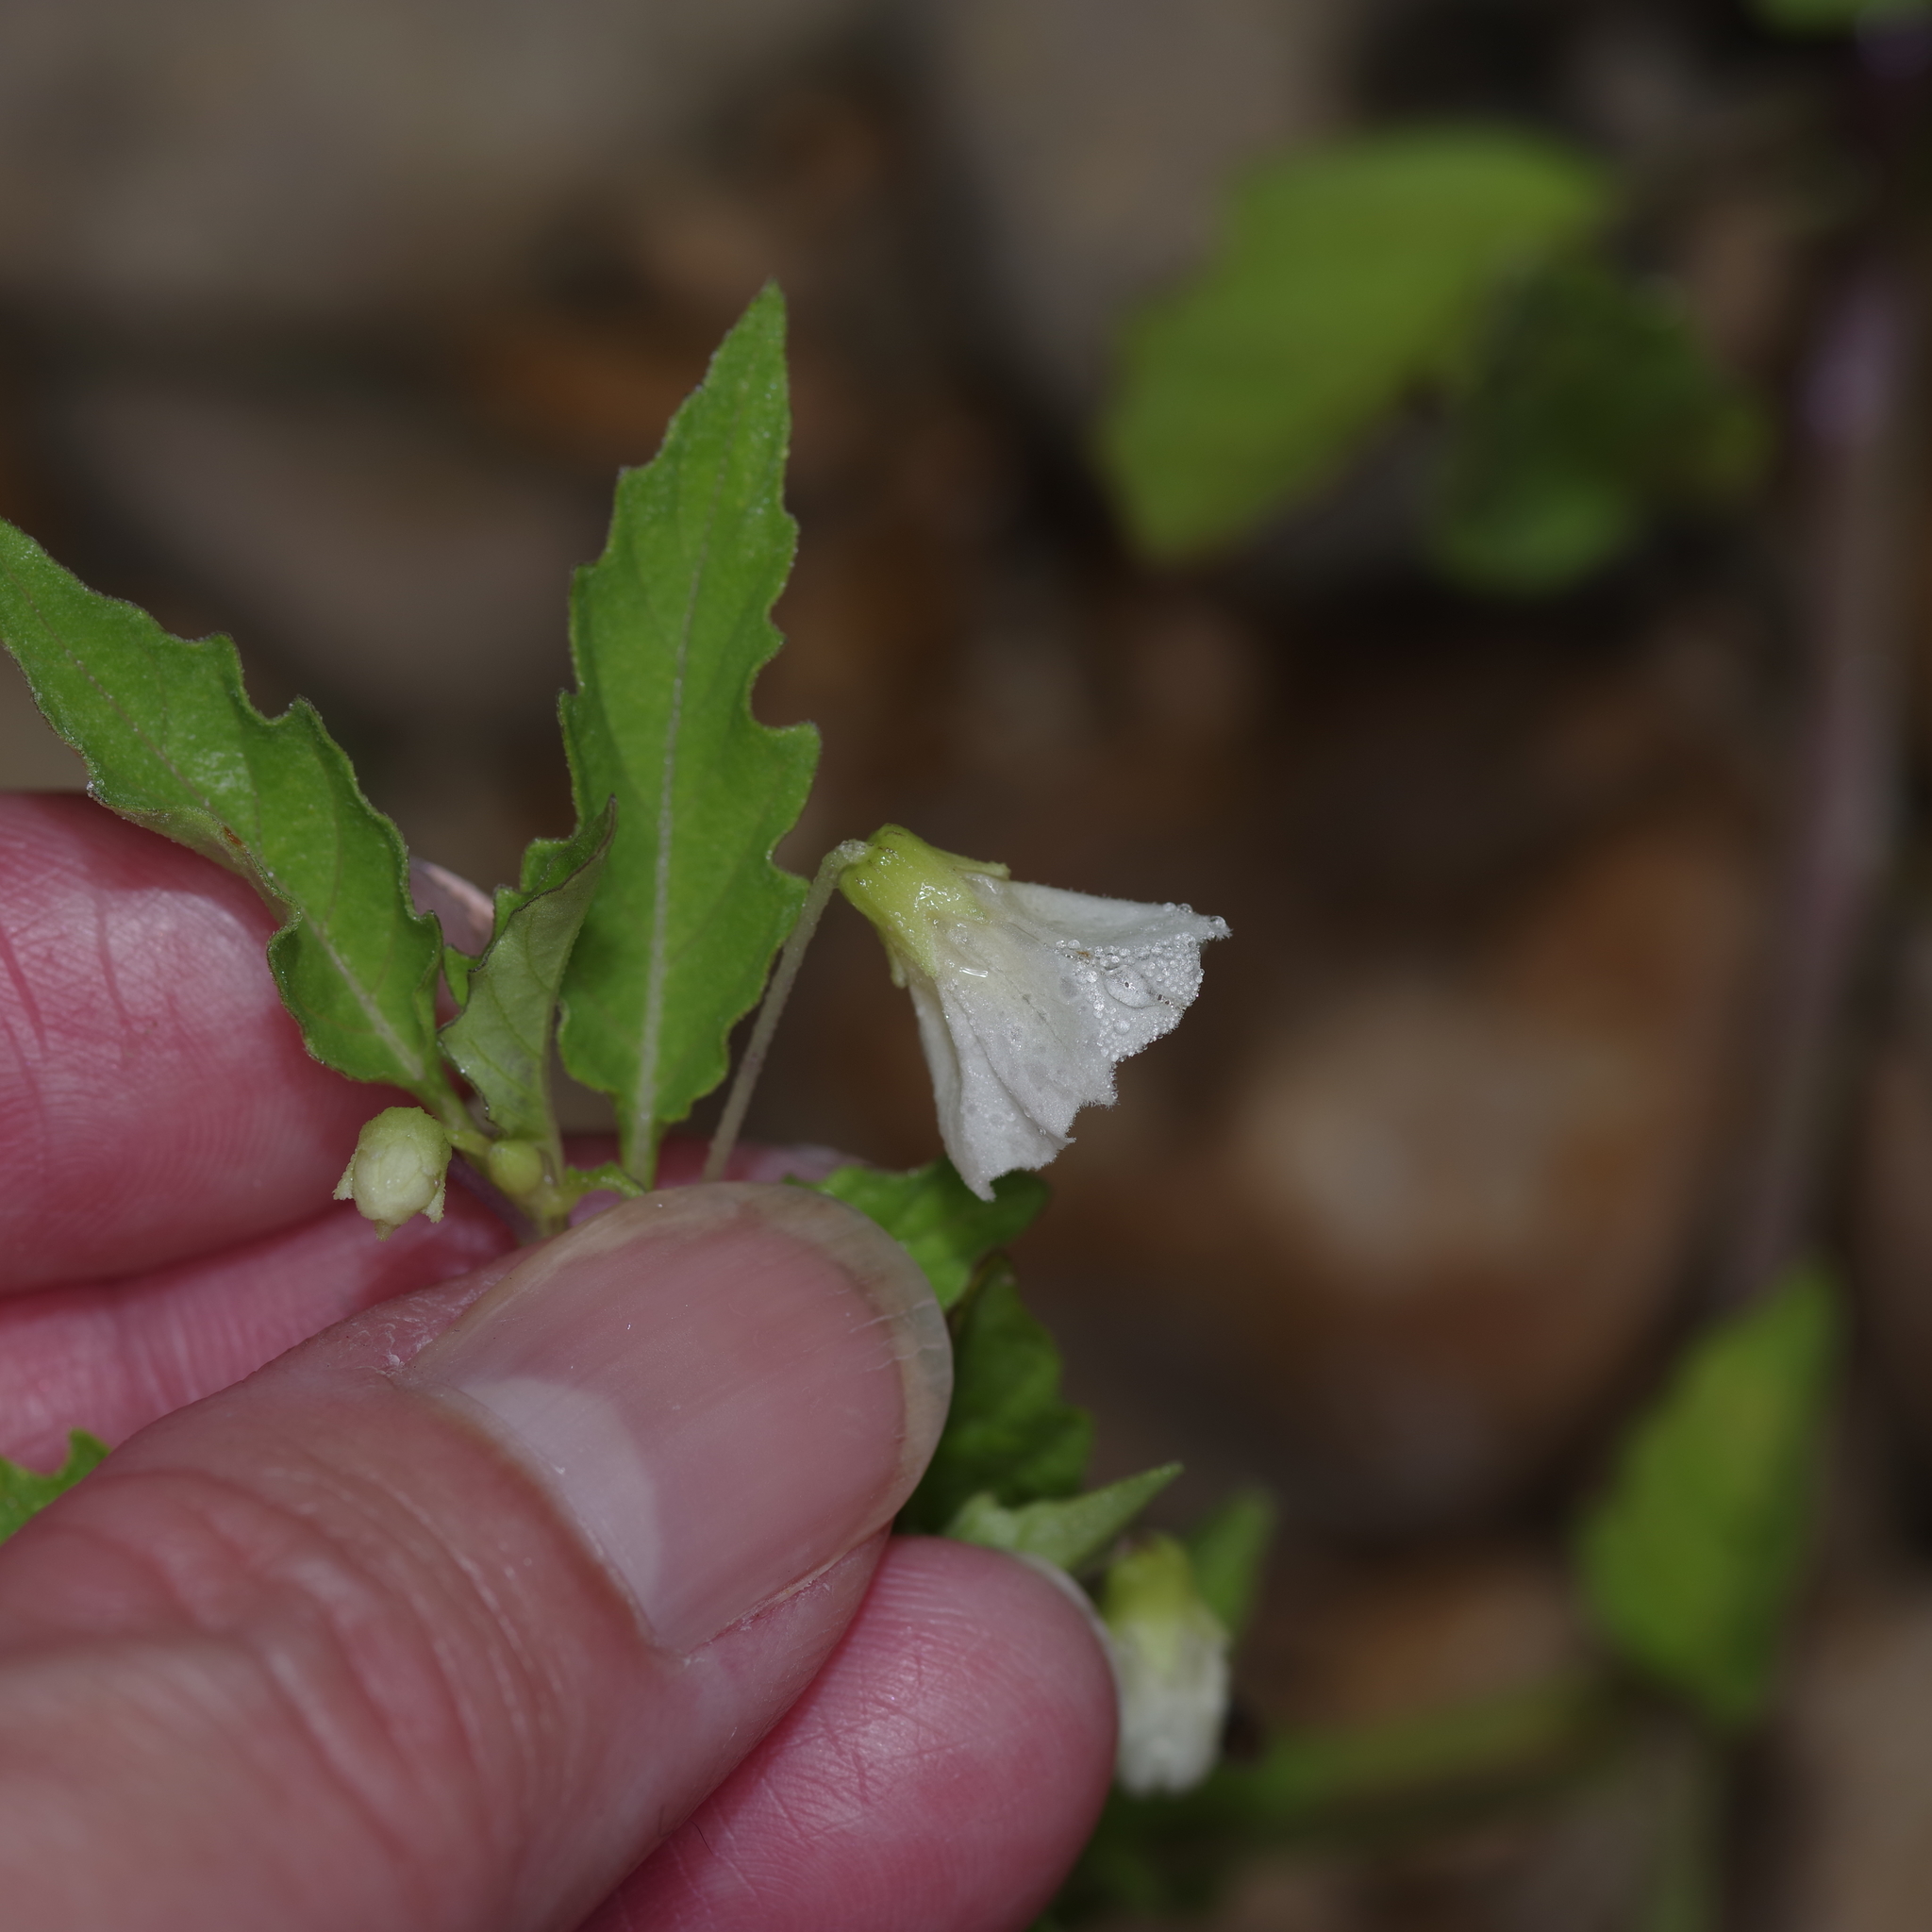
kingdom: Plantae
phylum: Tracheophyta
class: Magnoliopsida
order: Solanales
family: Solanaceae
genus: Physalis
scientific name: Physalis angulata
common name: Angular winter-cherry
